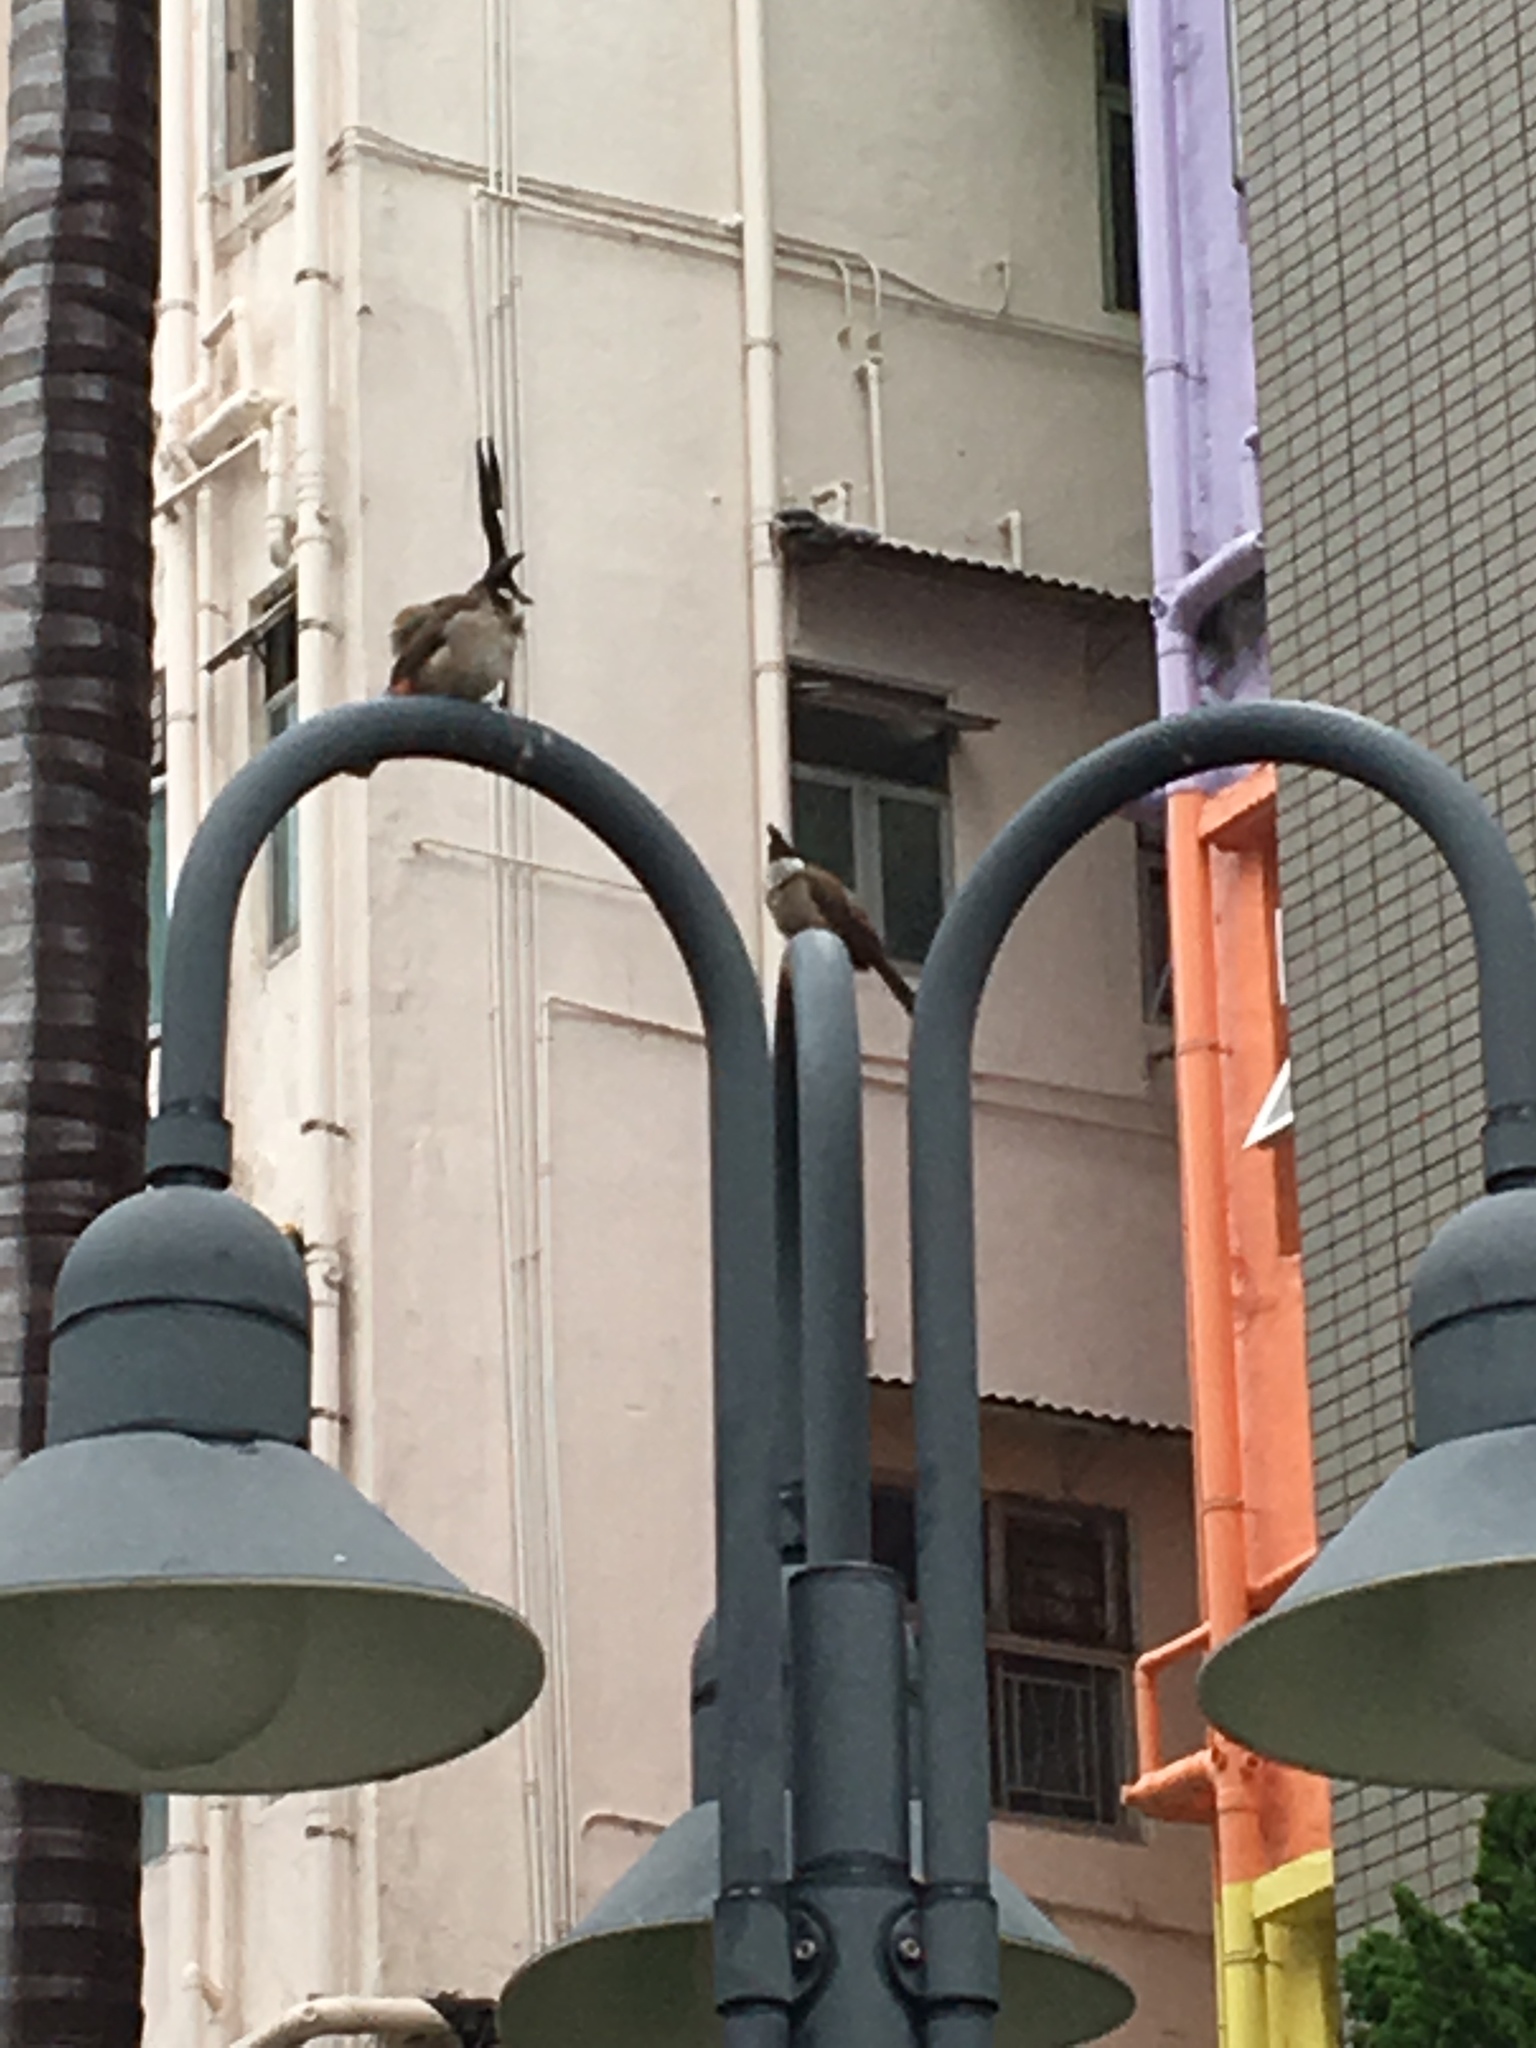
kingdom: Animalia
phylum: Chordata
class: Aves
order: Passeriformes
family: Pycnonotidae
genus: Pycnonotus
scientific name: Pycnonotus jocosus
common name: Red-whiskered bulbul
